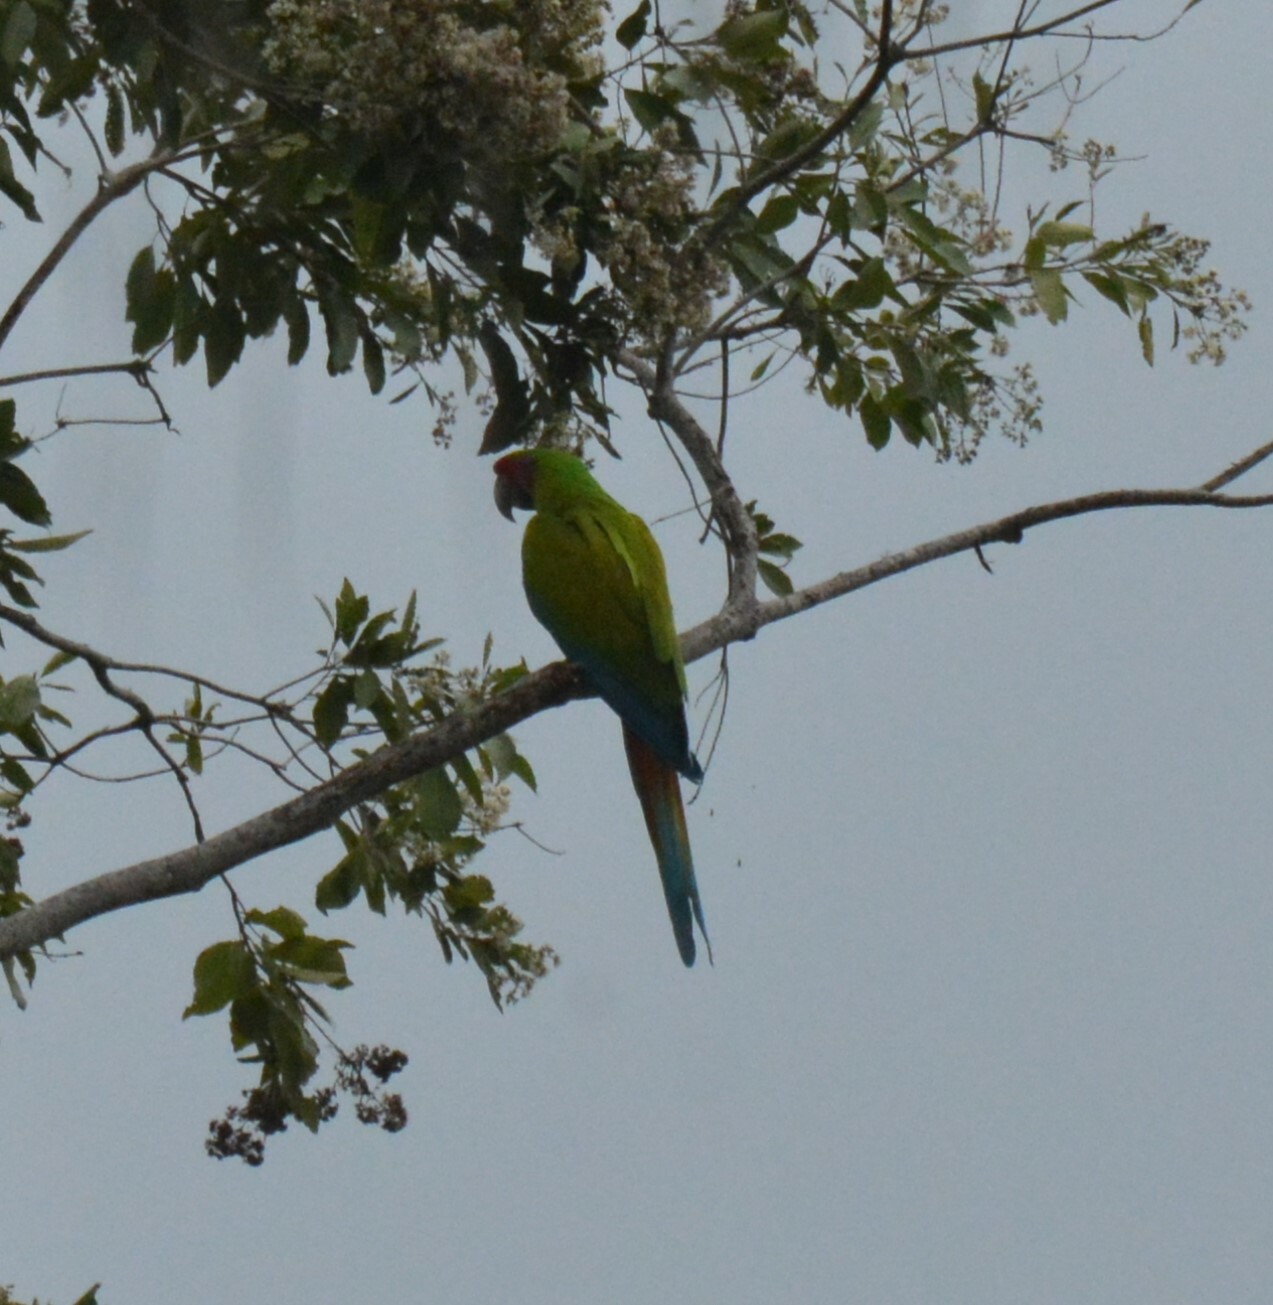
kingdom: Animalia
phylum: Chordata
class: Aves
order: Psittaciformes
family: Psittacidae
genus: Ara
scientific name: Ara ambiguus
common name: Great green macaw
